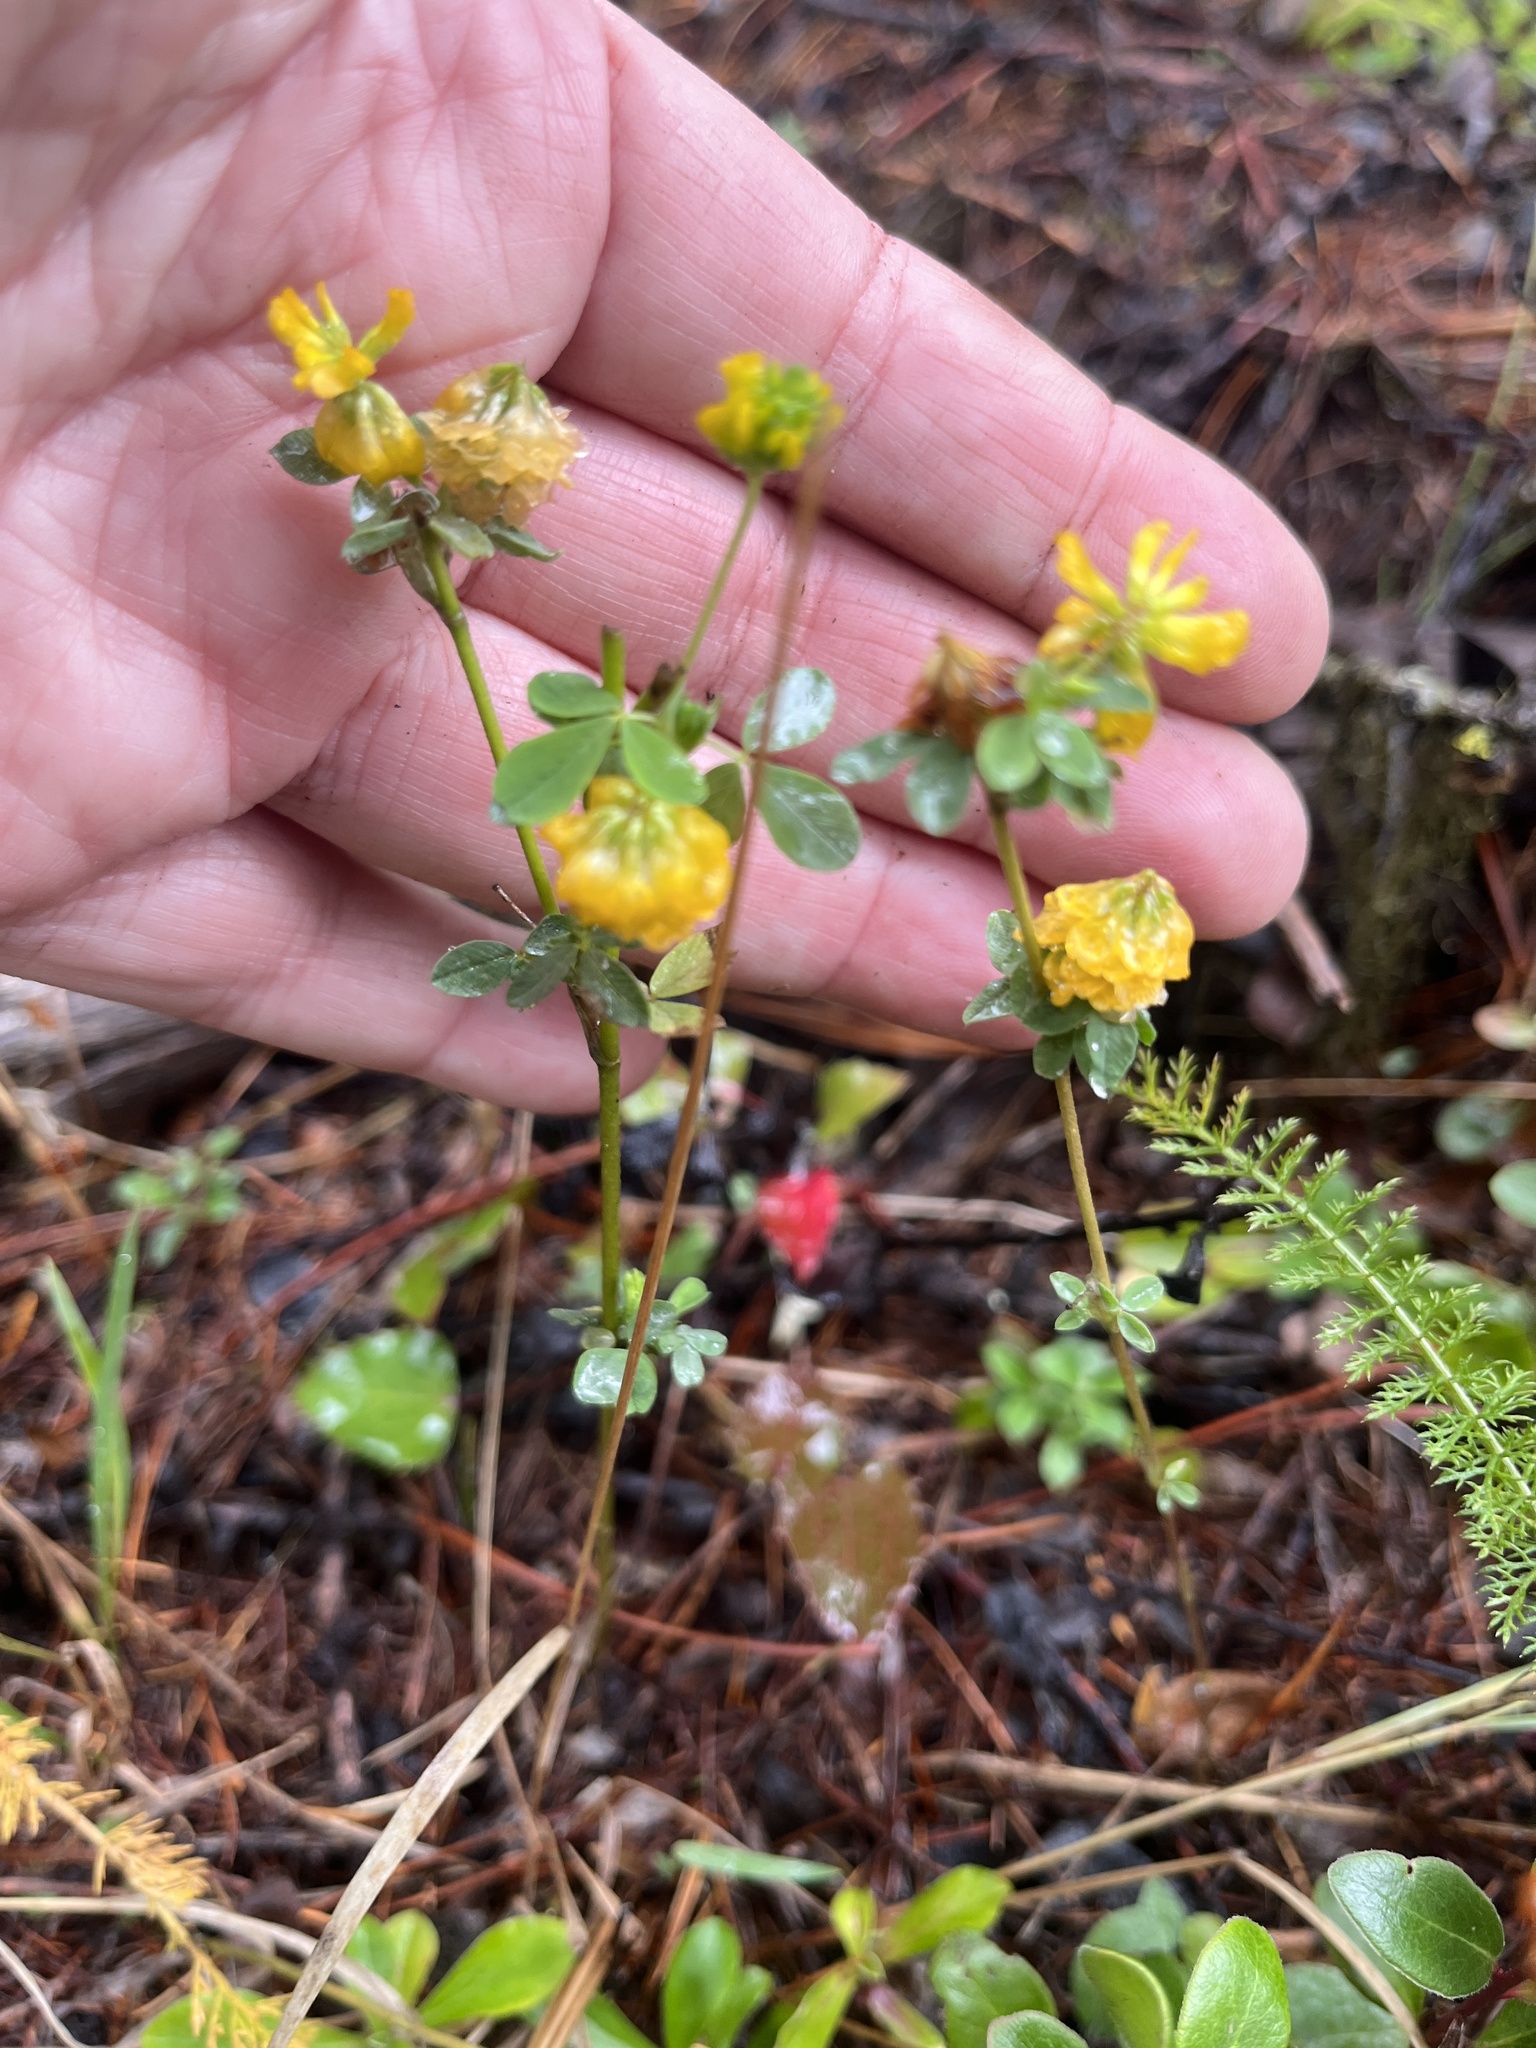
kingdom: Plantae
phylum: Tracheophyta
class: Magnoliopsida
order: Fabales
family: Fabaceae
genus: Trifolium
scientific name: Trifolium aureum
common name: Golden clover
